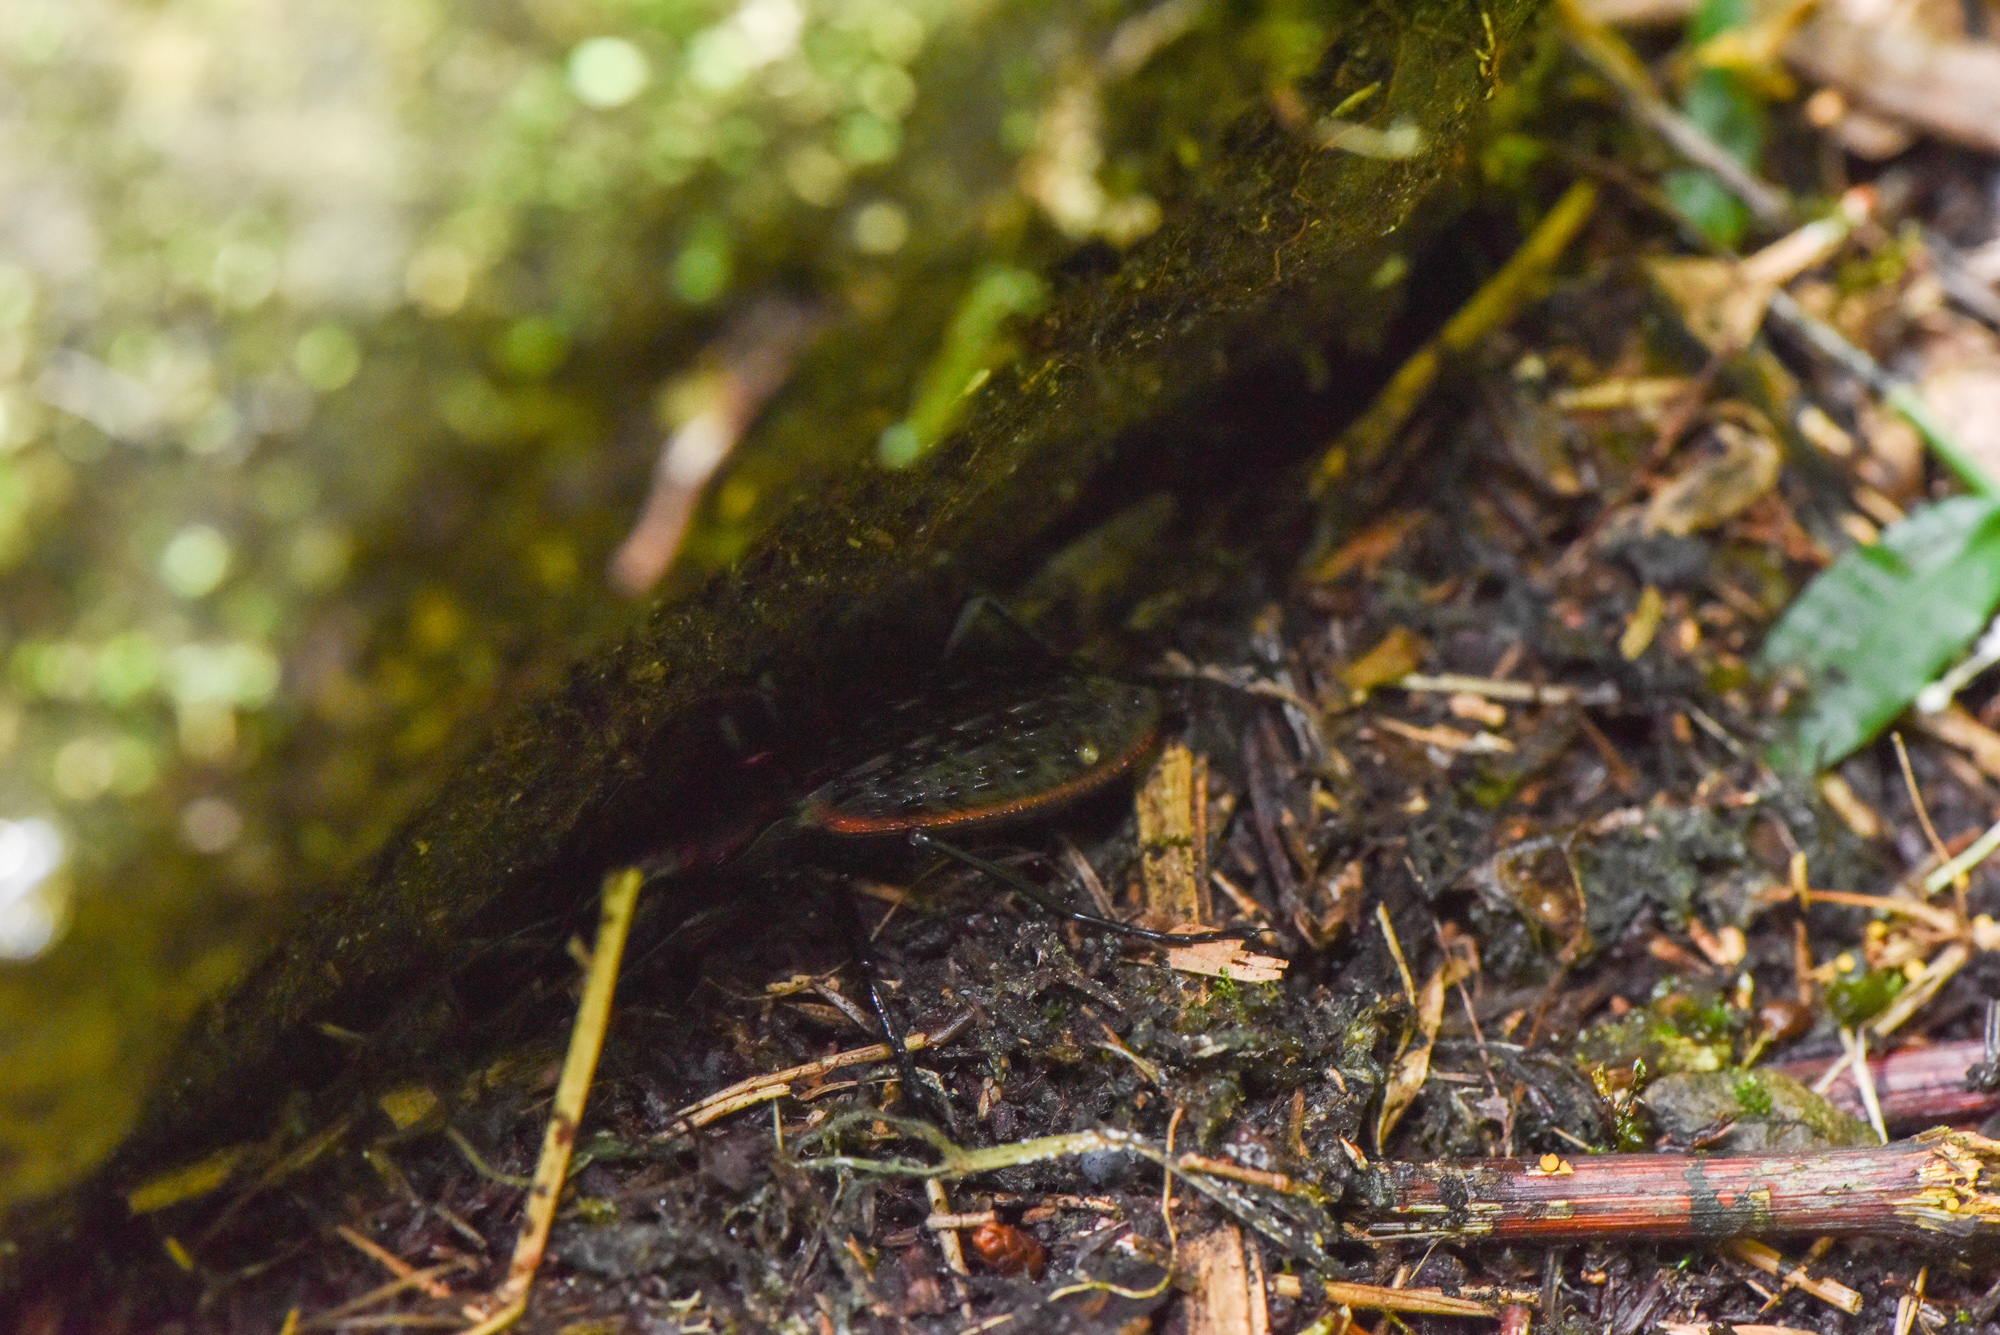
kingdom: Animalia
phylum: Arthropoda
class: Insecta
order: Coleoptera
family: Carabidae
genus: Carabus
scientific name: Carabus nankotaizanus
